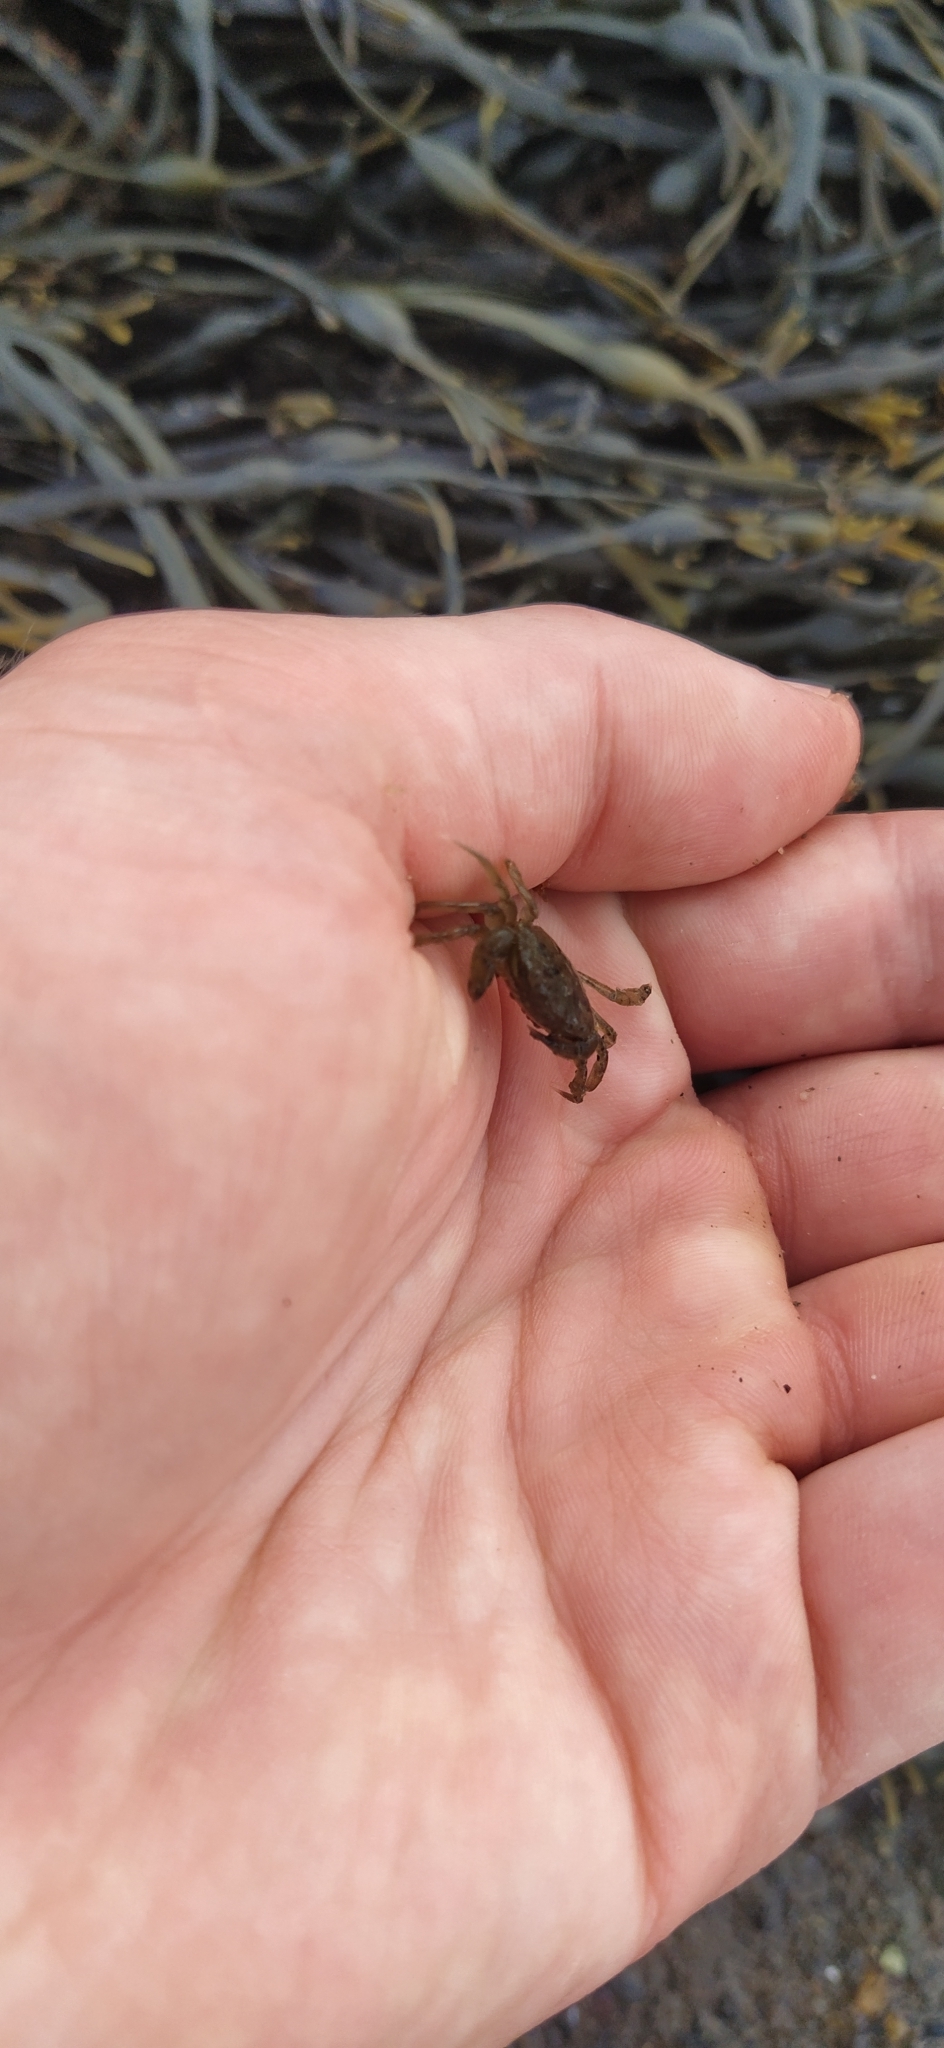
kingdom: Animalia
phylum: Arthropoda
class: Malacostraca
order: Decapoda
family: Carcinidae
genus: Carcinus
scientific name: Carcinus maenas
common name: European green crab
